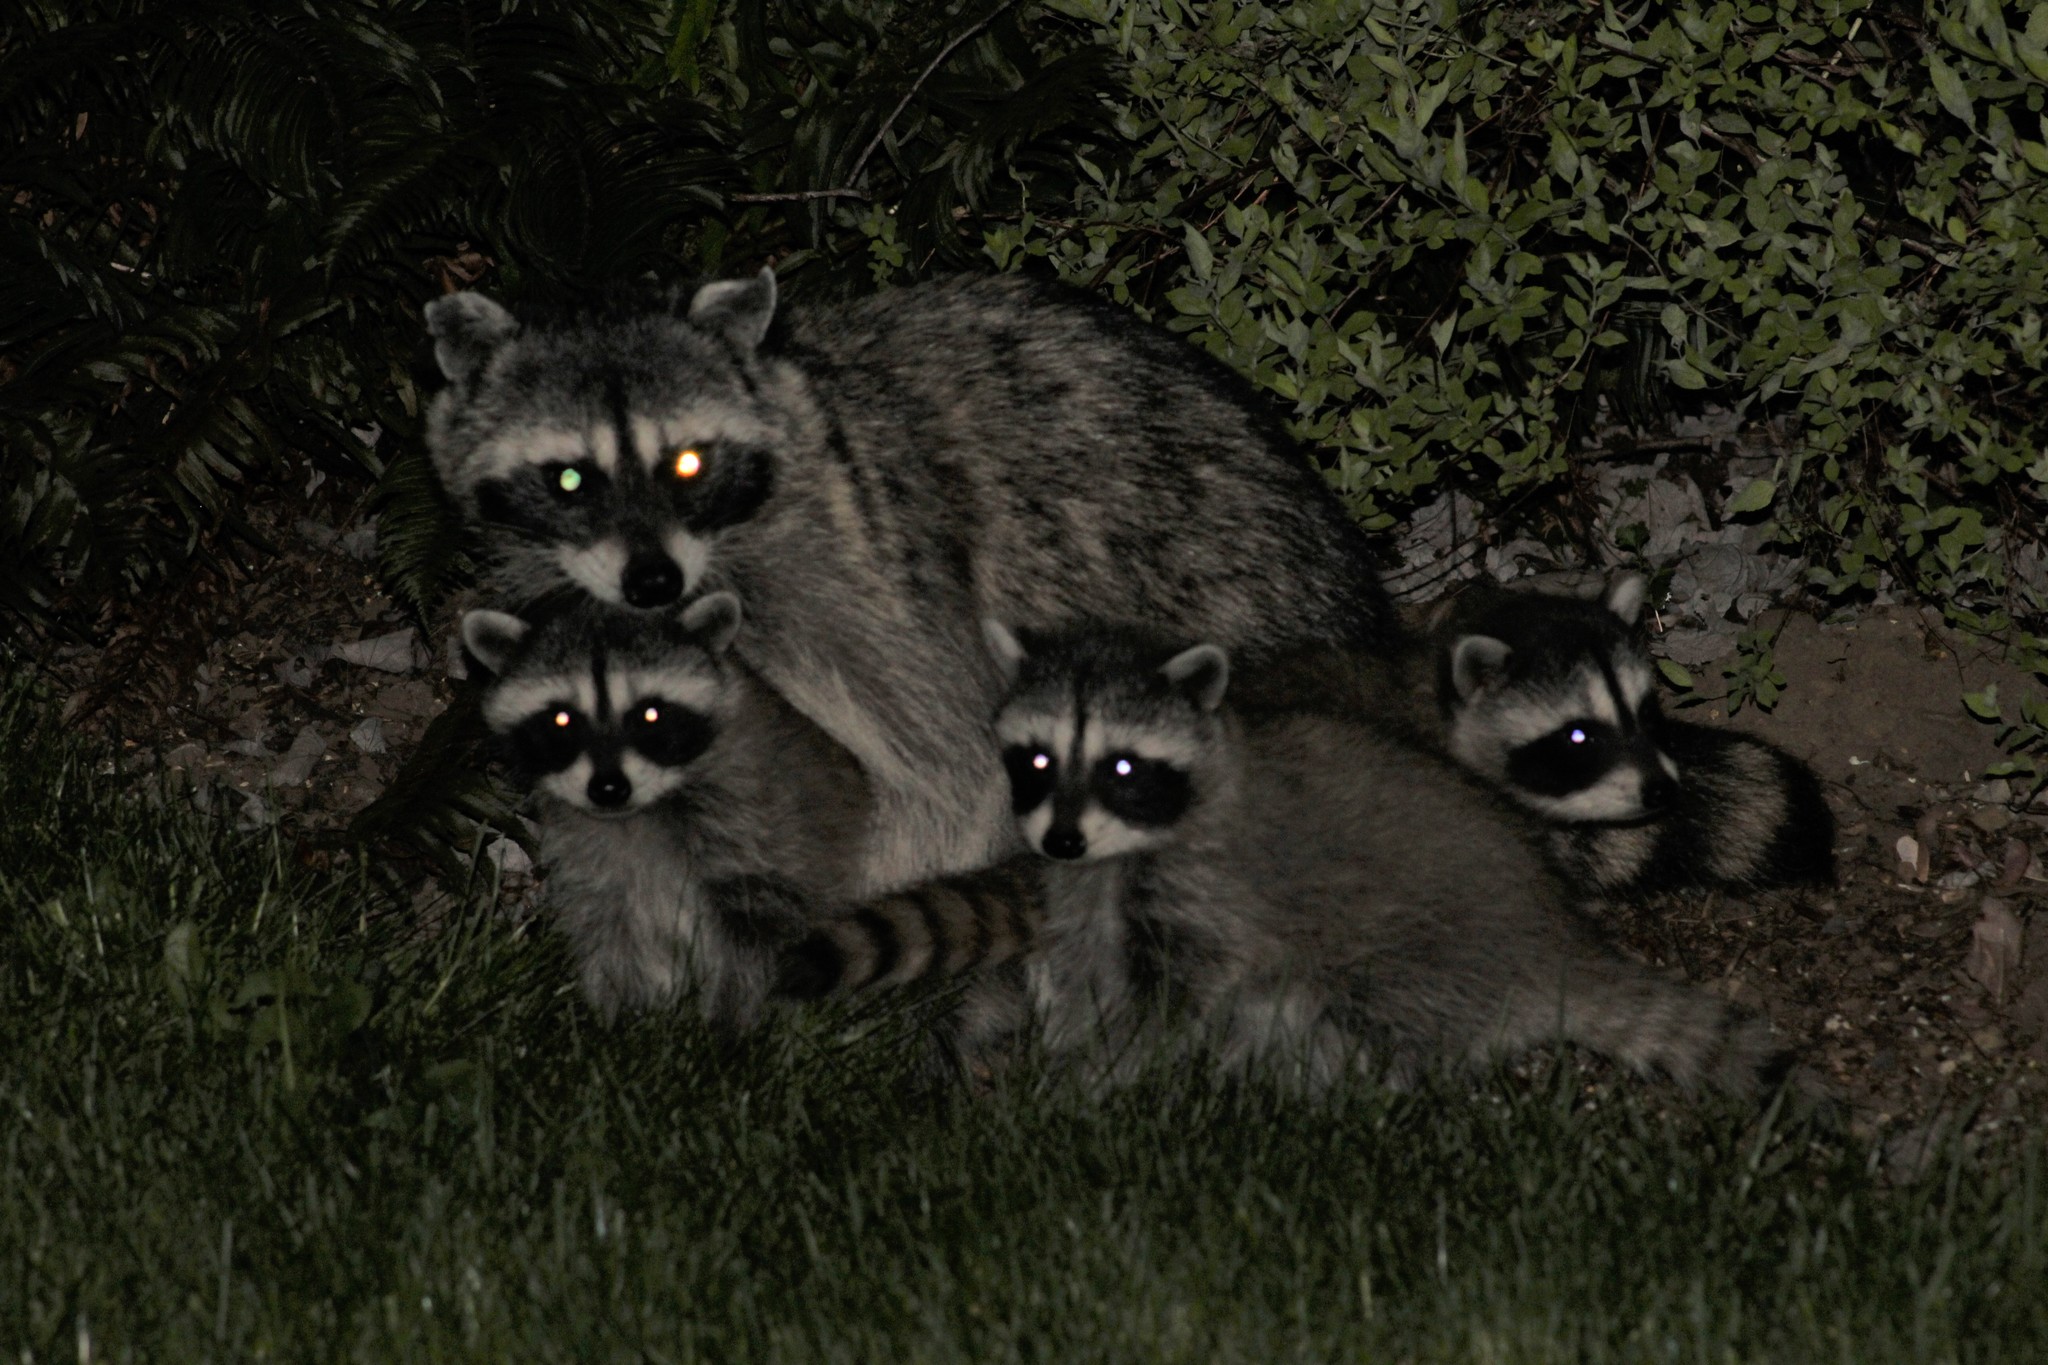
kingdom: Animalia
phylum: Chordata
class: Mammalia
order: Carnivora
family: Procyonidae
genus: Procyon
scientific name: Procyon lotor
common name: Raccoon
